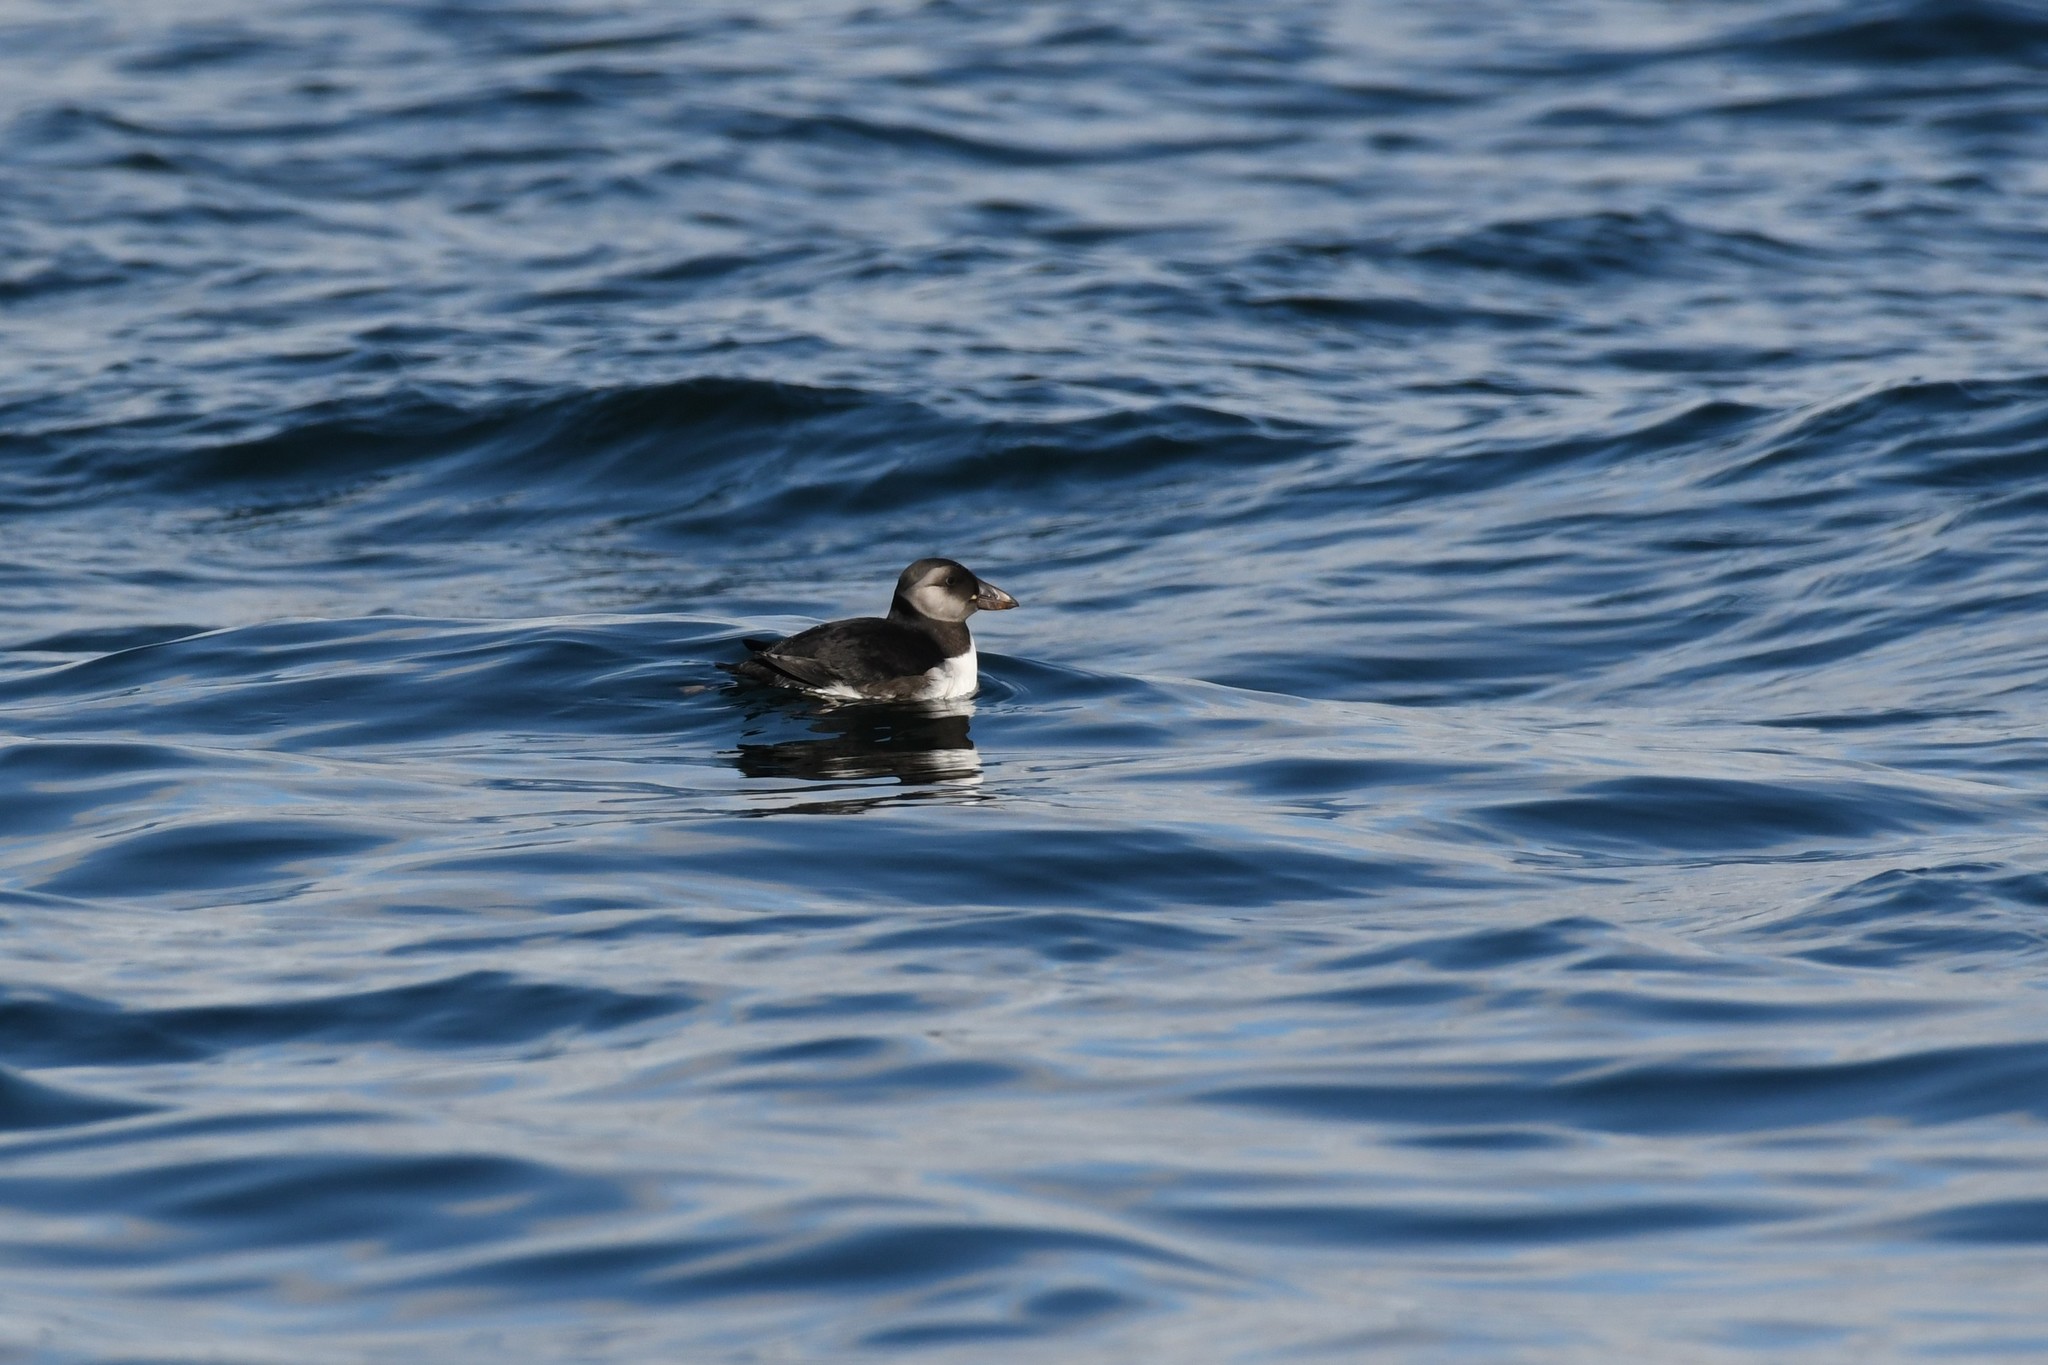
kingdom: Animalia
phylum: Chordata
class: Aves
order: Charadriiformes
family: Alcidae
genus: Fratercula
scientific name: Fratercula arctica
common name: Atlantic puffin
